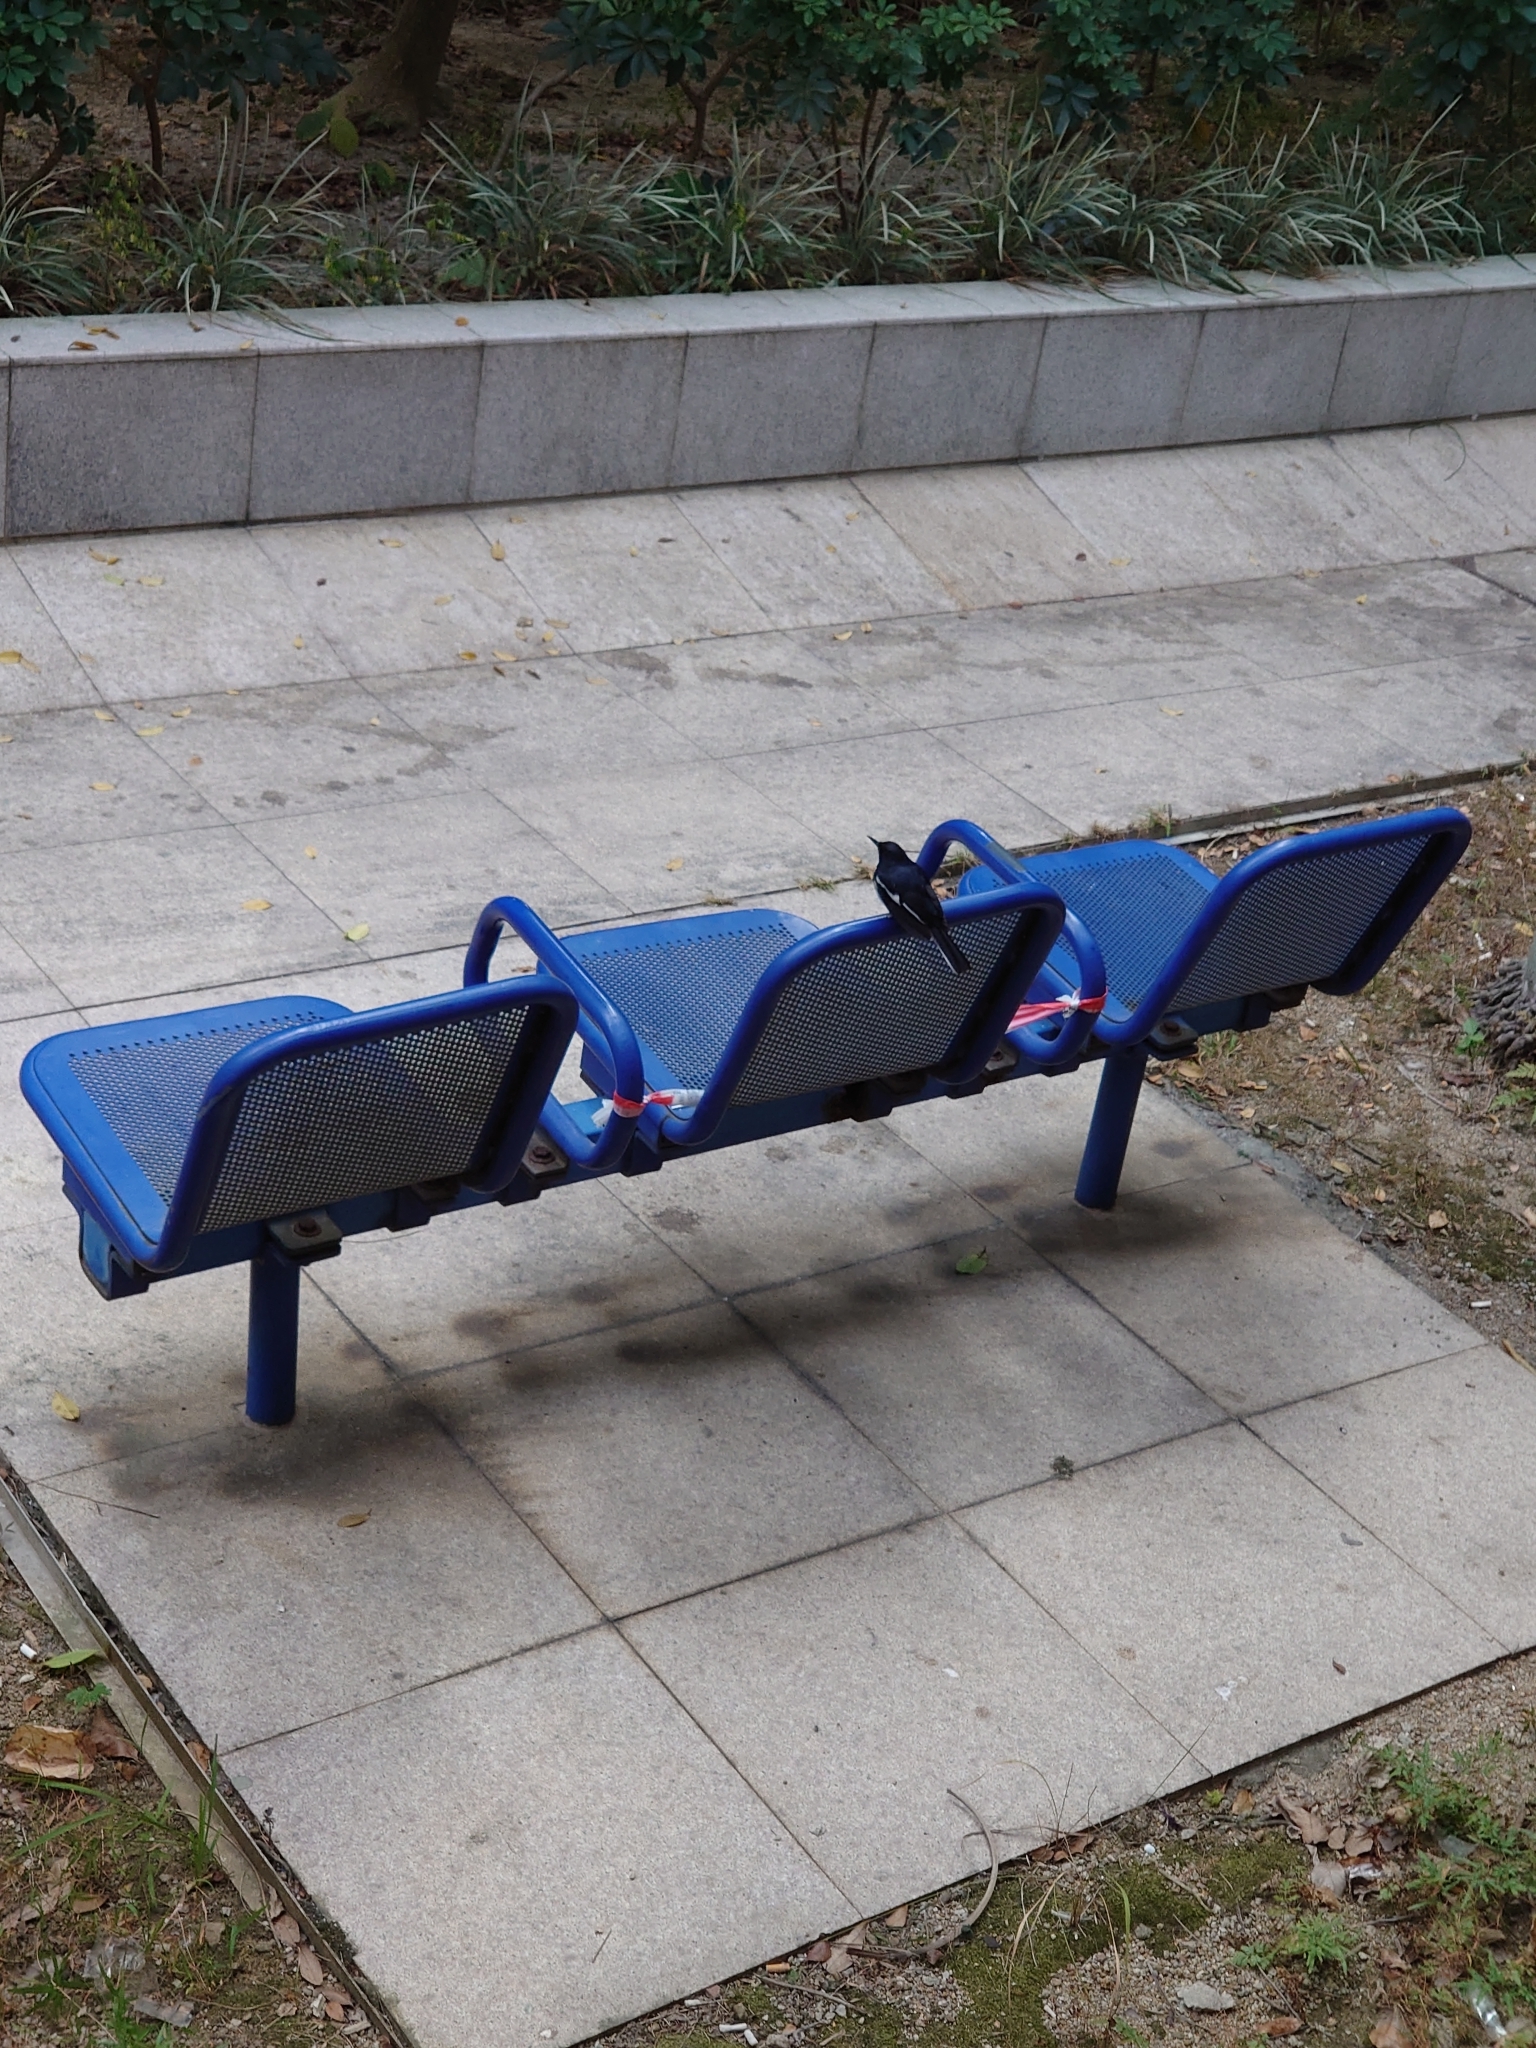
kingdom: Animalia
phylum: Chordata
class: Aves
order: Passeriformes
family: Muscicapidae
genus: Copsychus
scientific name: Copsychus saularis
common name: Oriental magpie-robin
